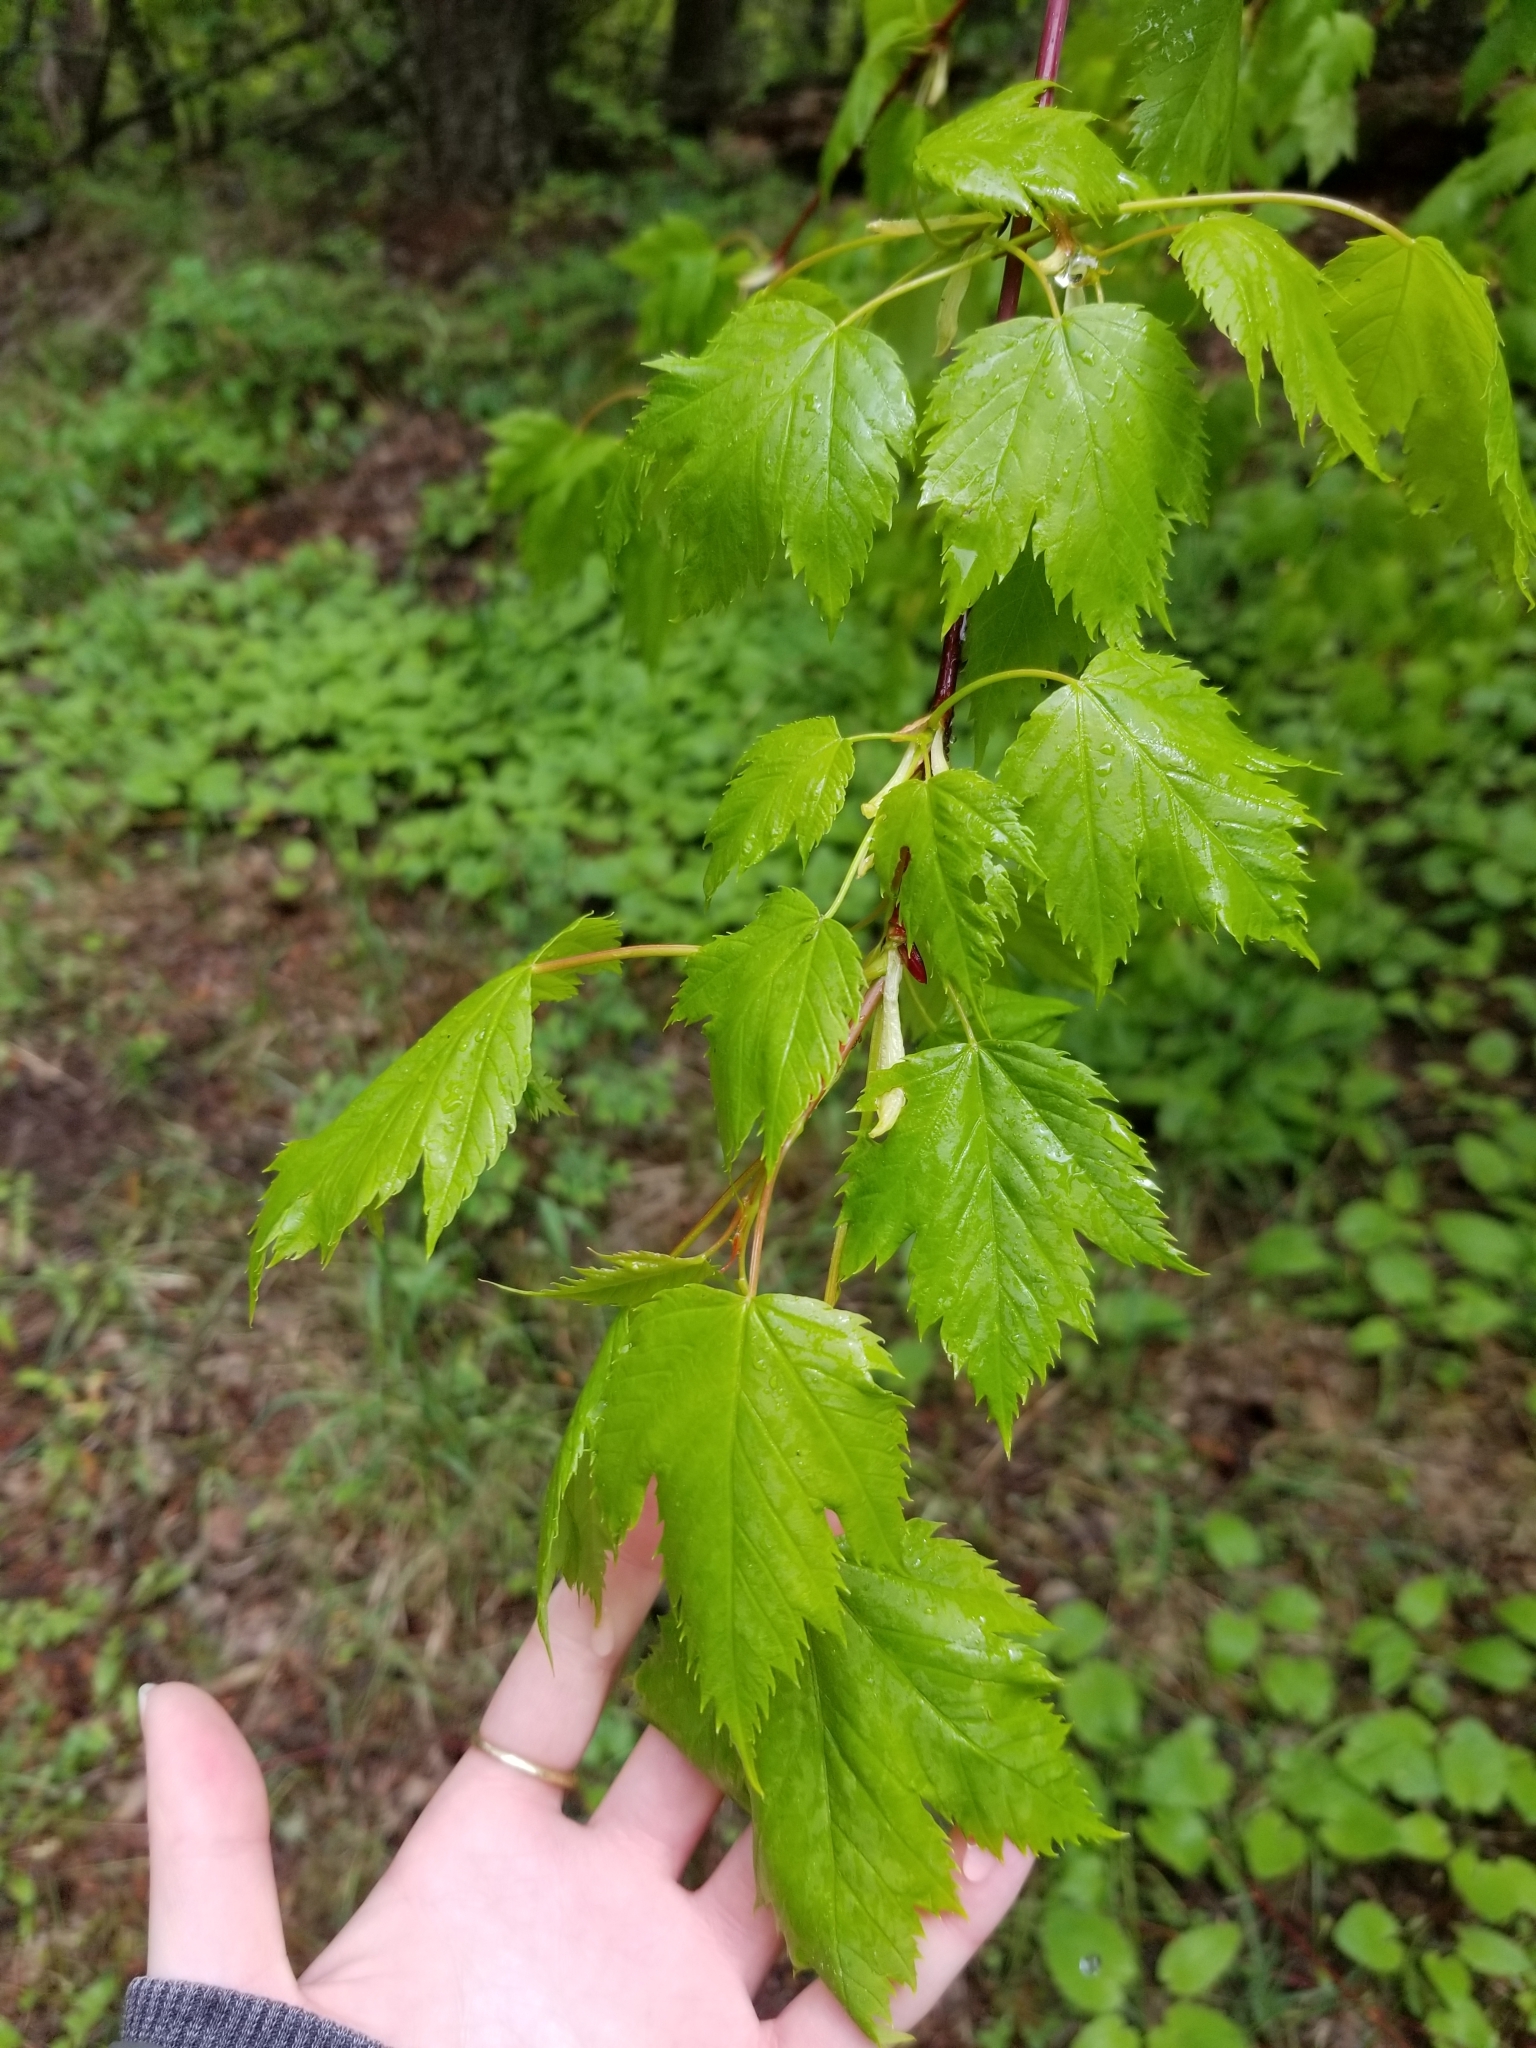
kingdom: Plantae
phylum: Tracheophyta
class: Magnoliopsida
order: Sapindales
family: Sapindaceae
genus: Acer
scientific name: Acer glabrum
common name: Rocky mountain maple
